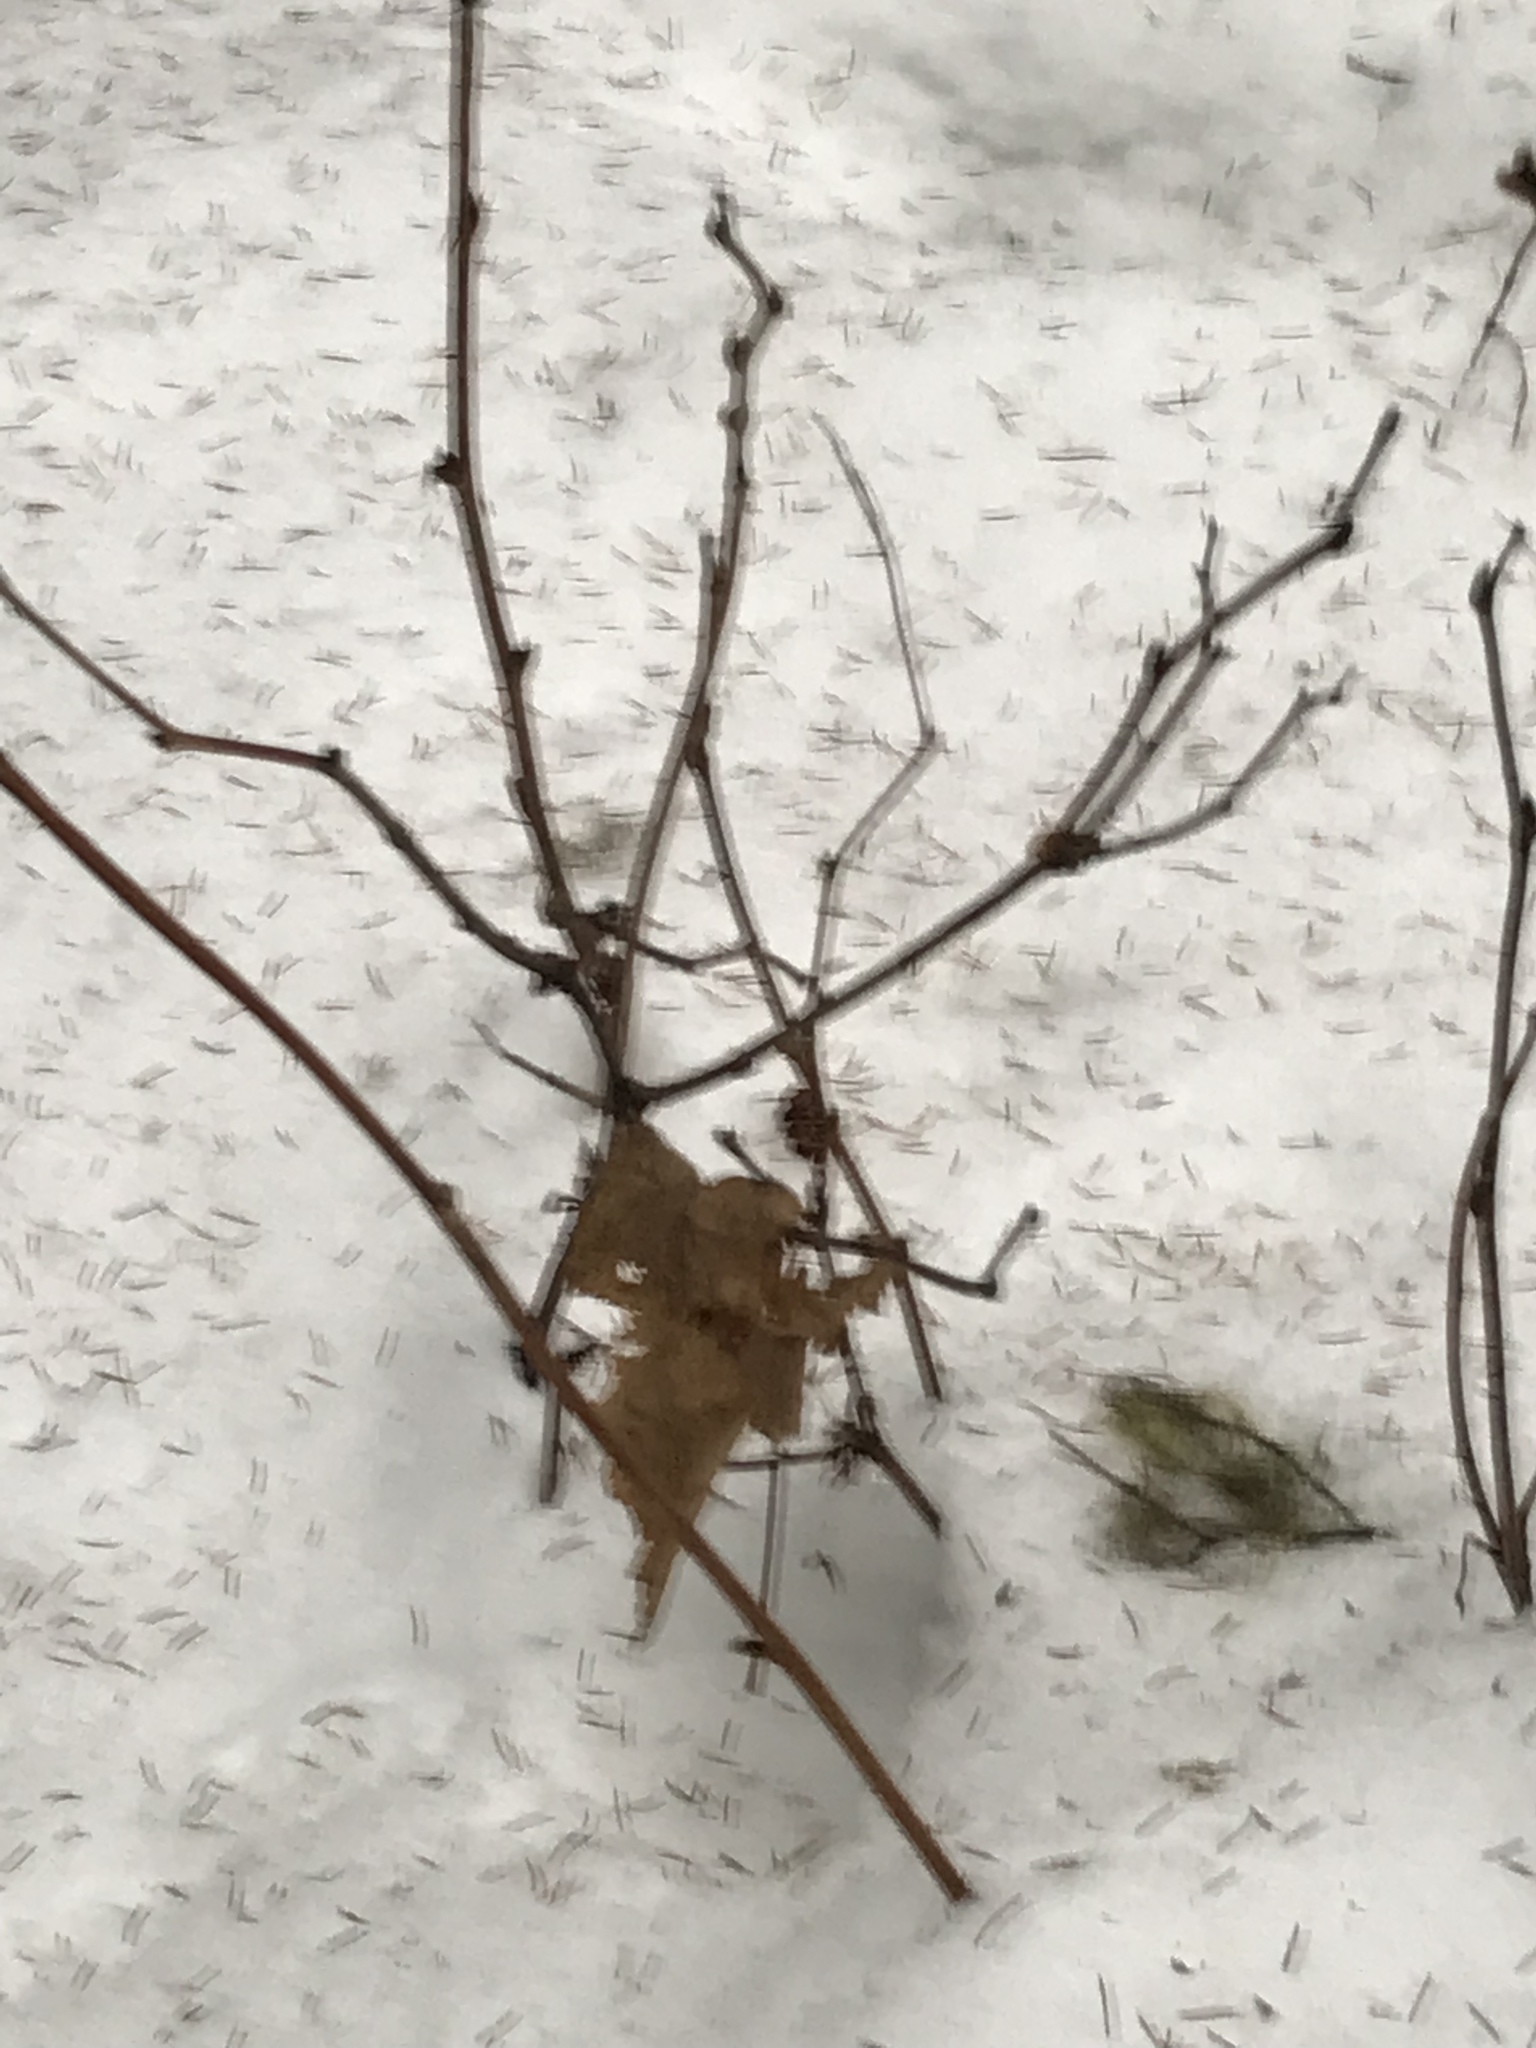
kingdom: Plantae
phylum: Tracheophyta
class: Magnoliopsida
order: Rosales
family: Rosaceae
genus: Rubus
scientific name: Rubus parviflorus
